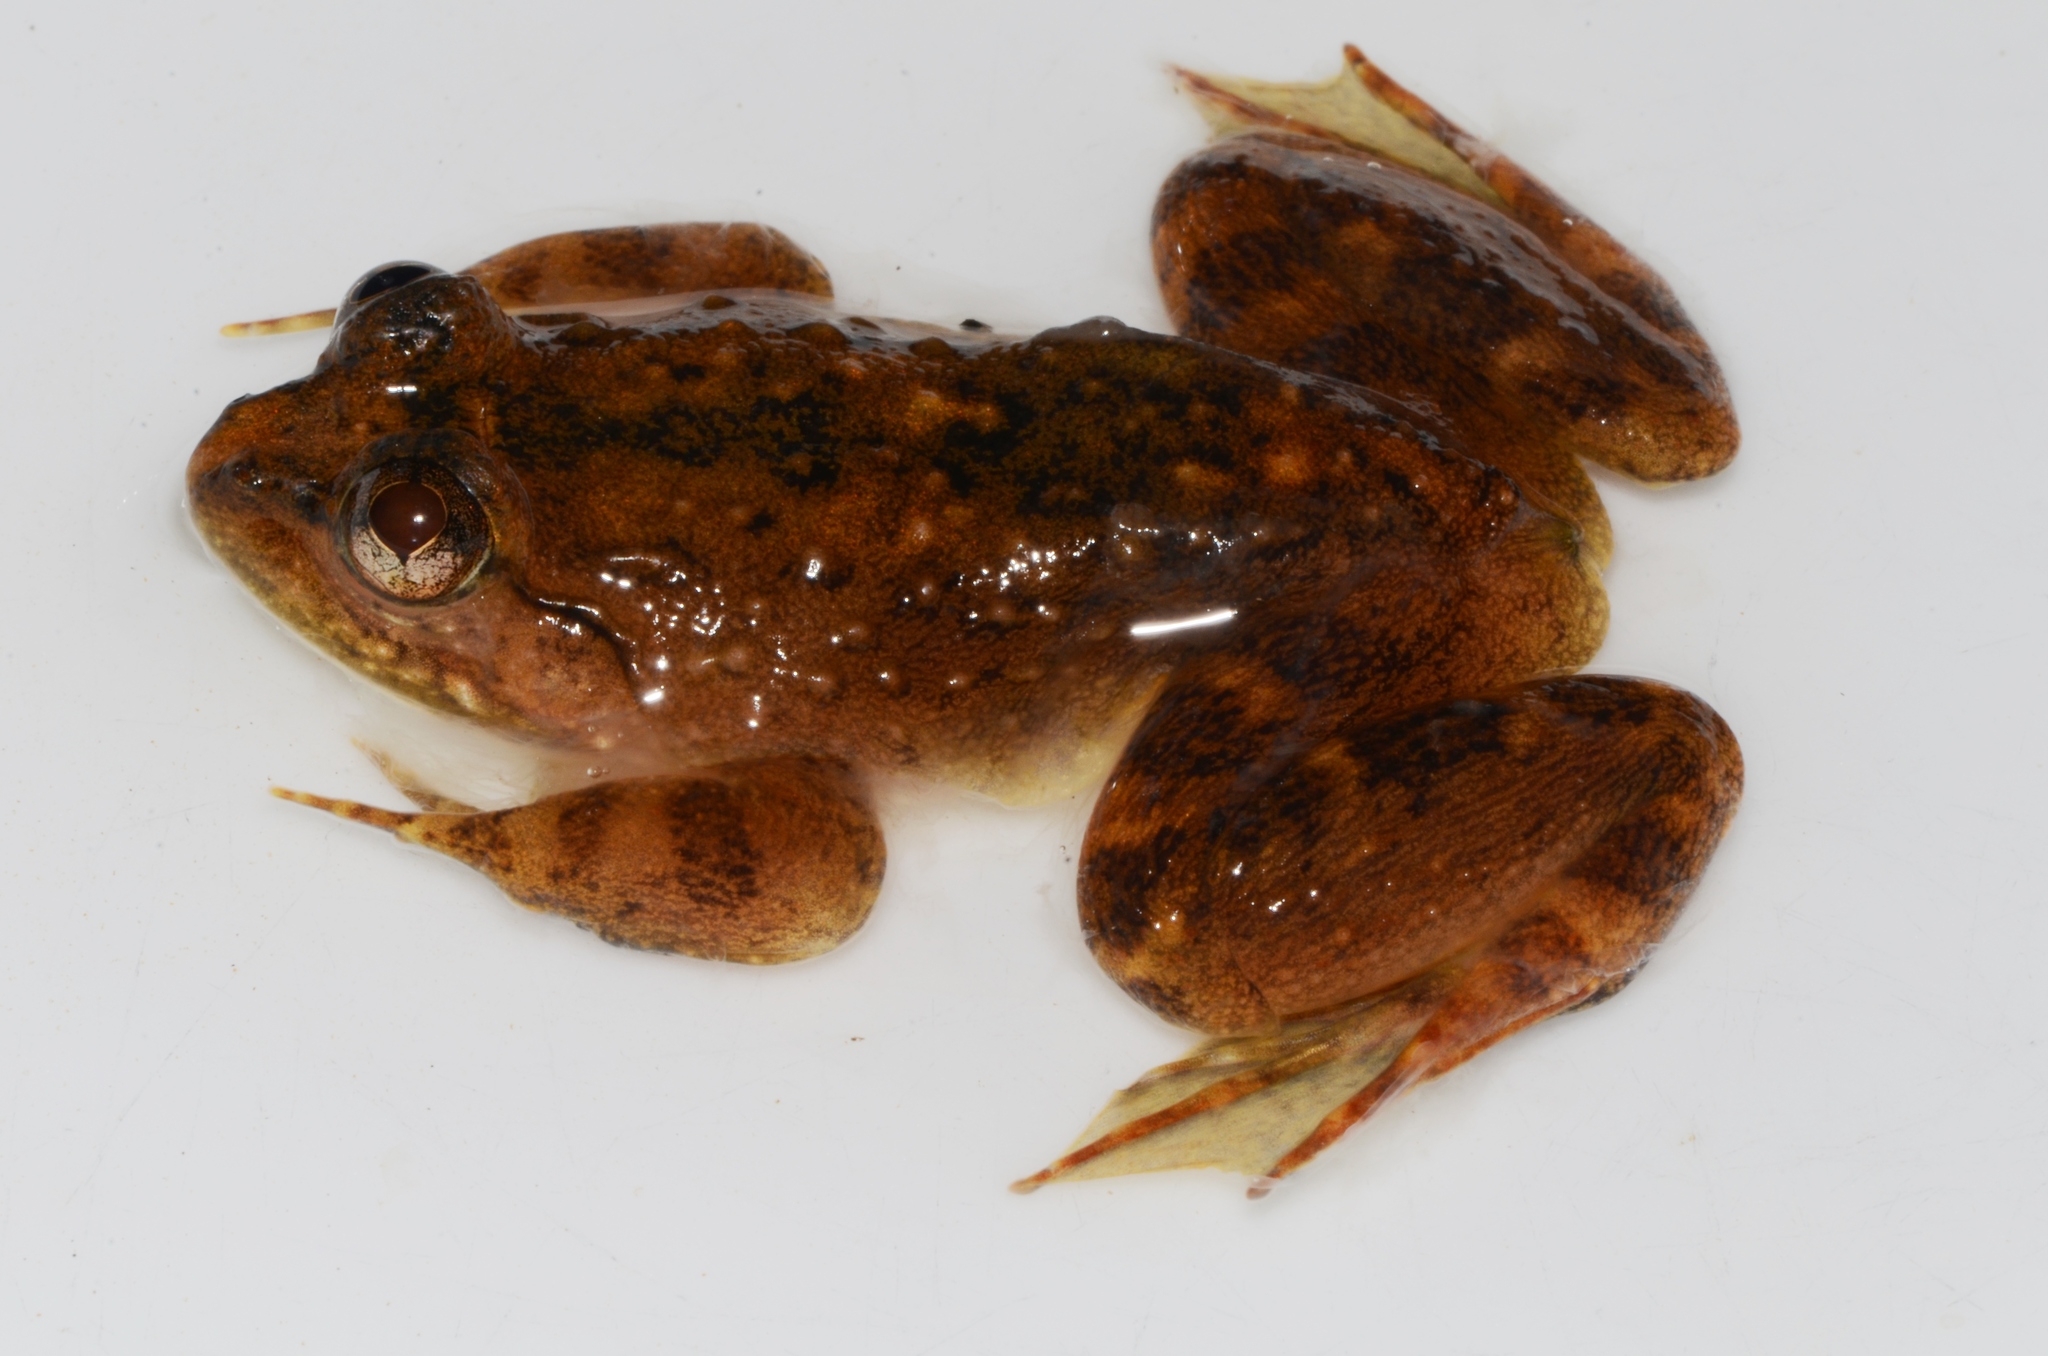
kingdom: Animalia
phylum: Chordata
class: Amphibia
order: Anura
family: Conrauidae
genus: Conraua
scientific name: Conraua crassipes
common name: Abo slippery frog
